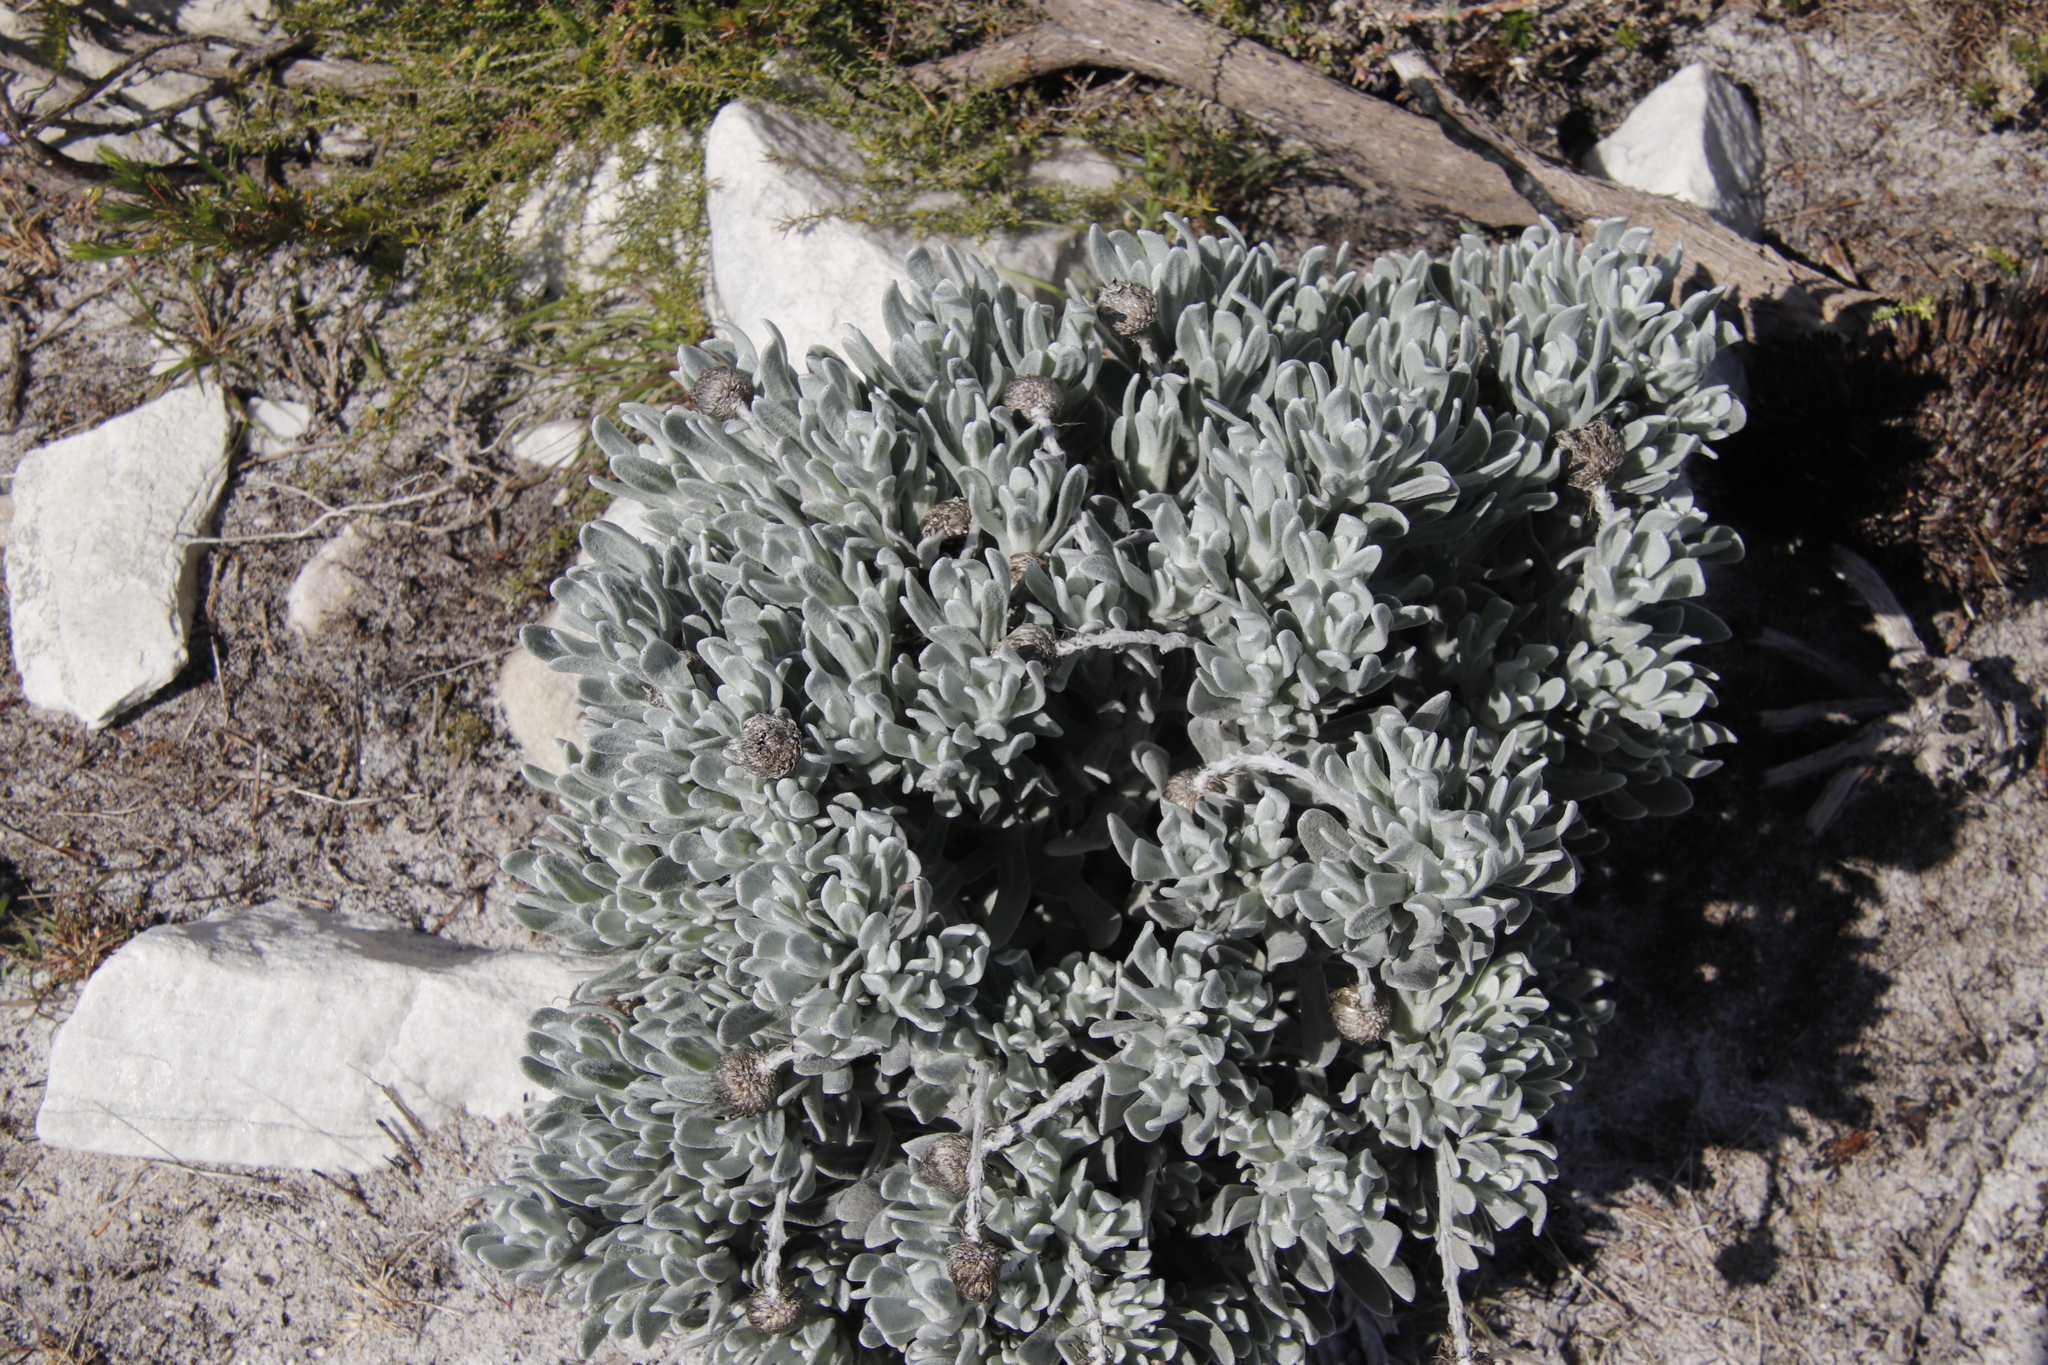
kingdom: Plantae
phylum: Tracheophyta
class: Magnoliopsida
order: Asterales
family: Asteraceae
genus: Syncarpha
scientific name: Syncarpha speciosissima
